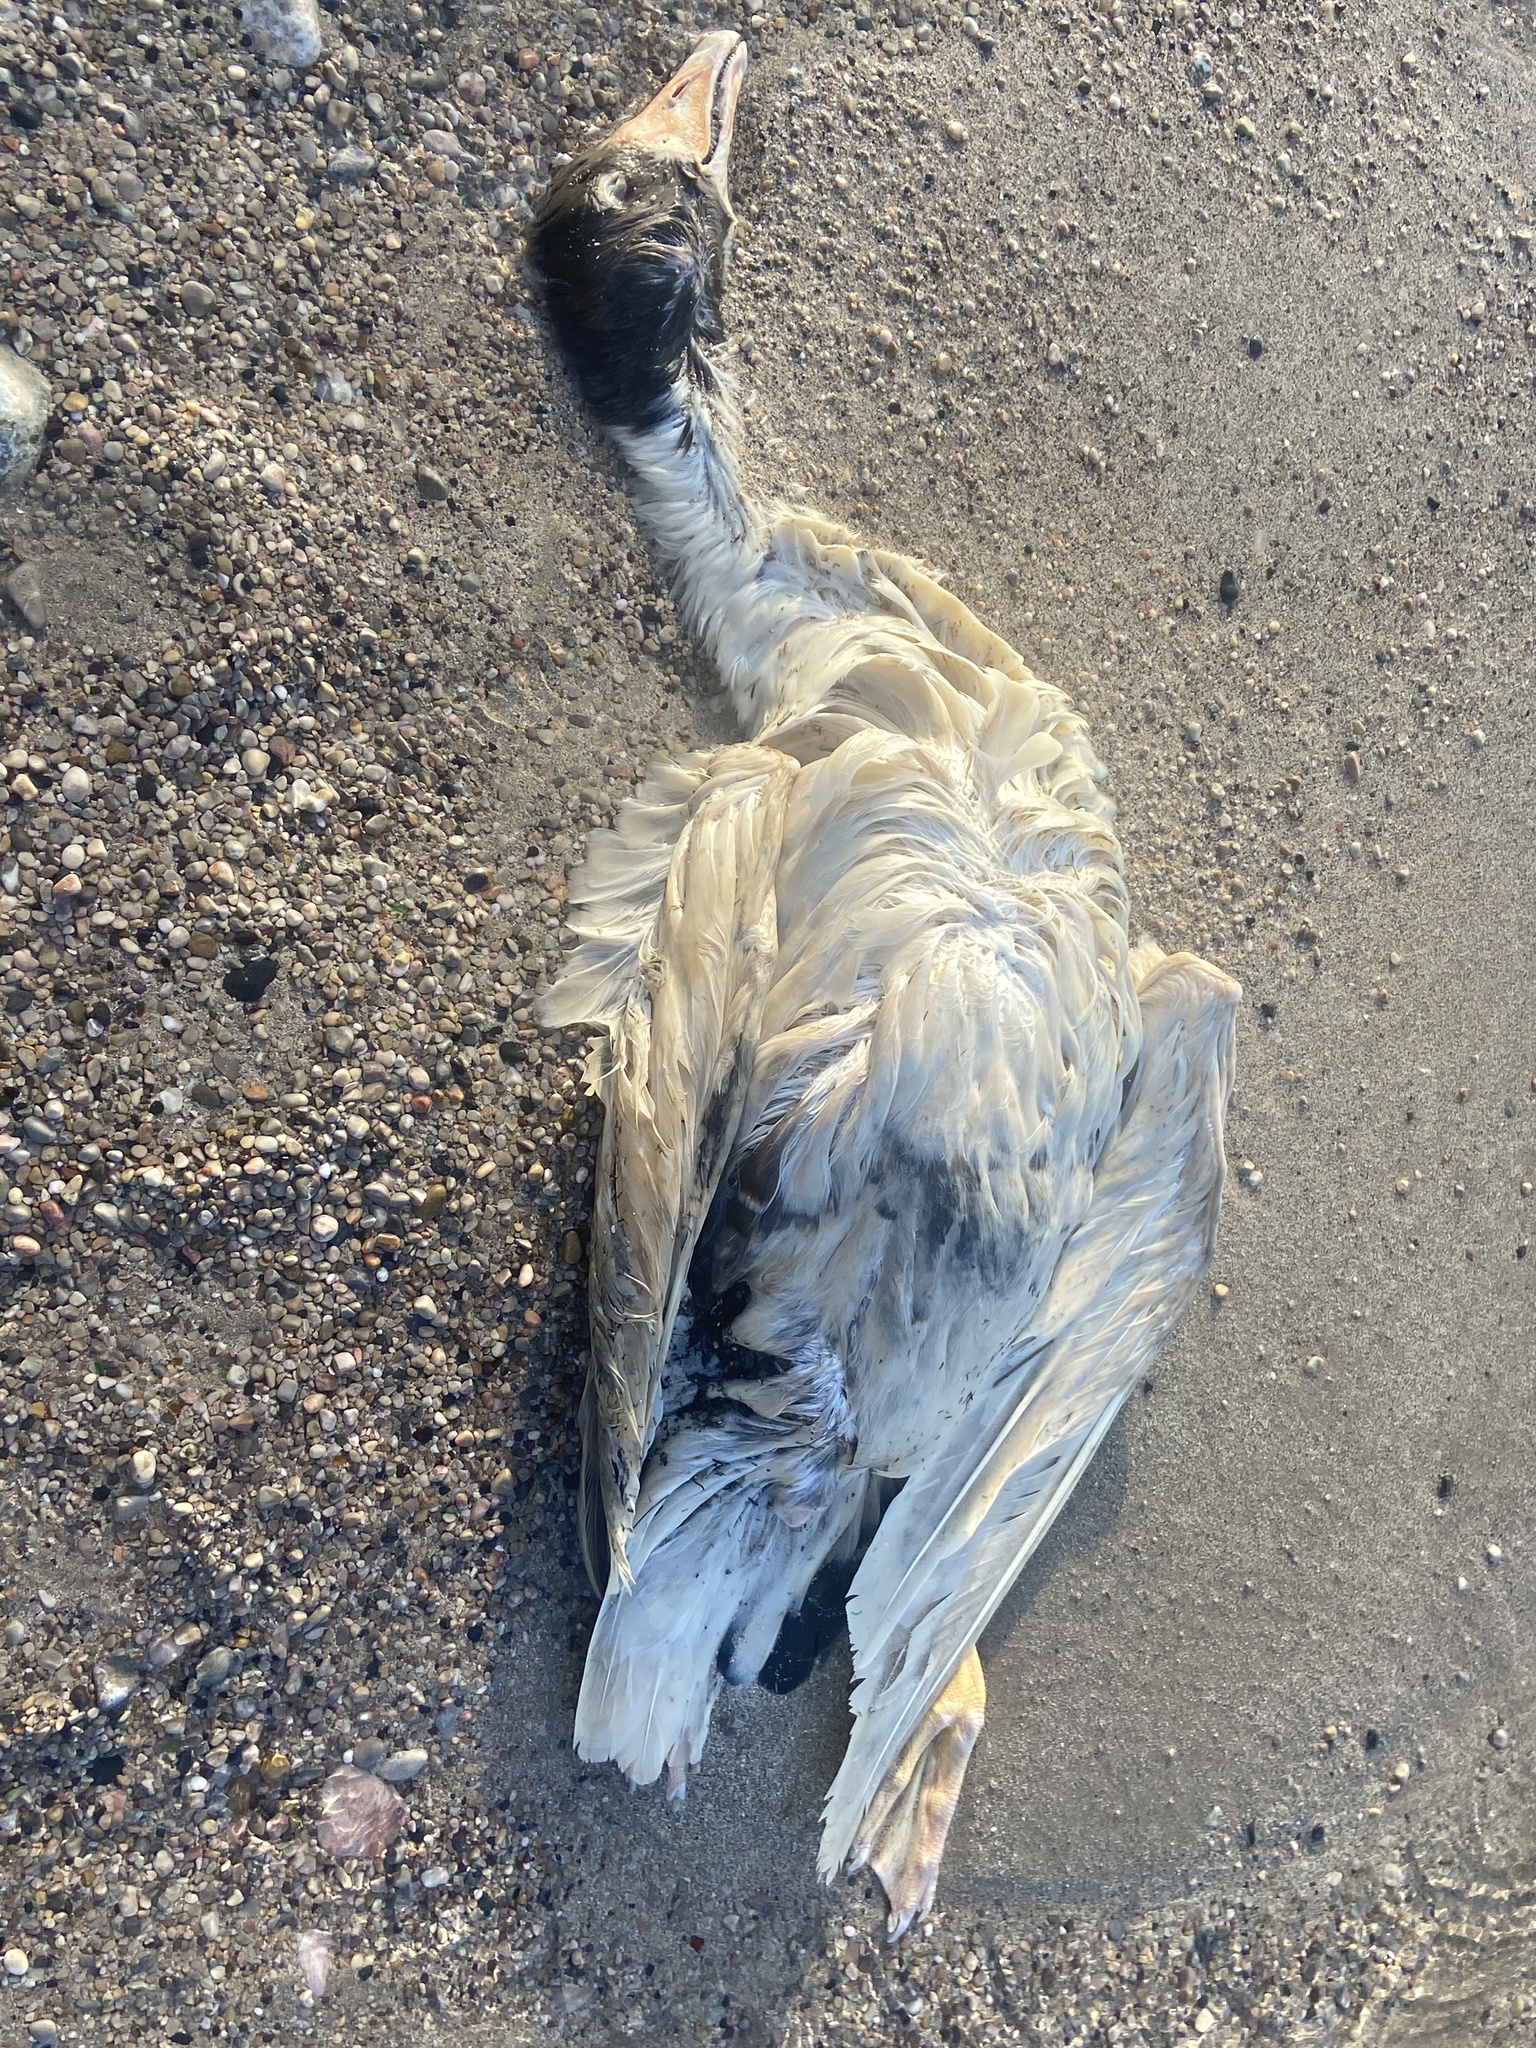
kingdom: Animalia
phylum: Chordata
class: Aves
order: Anseriformes
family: Anatidae
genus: Anser
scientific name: Anser anser
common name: Greylag goose
